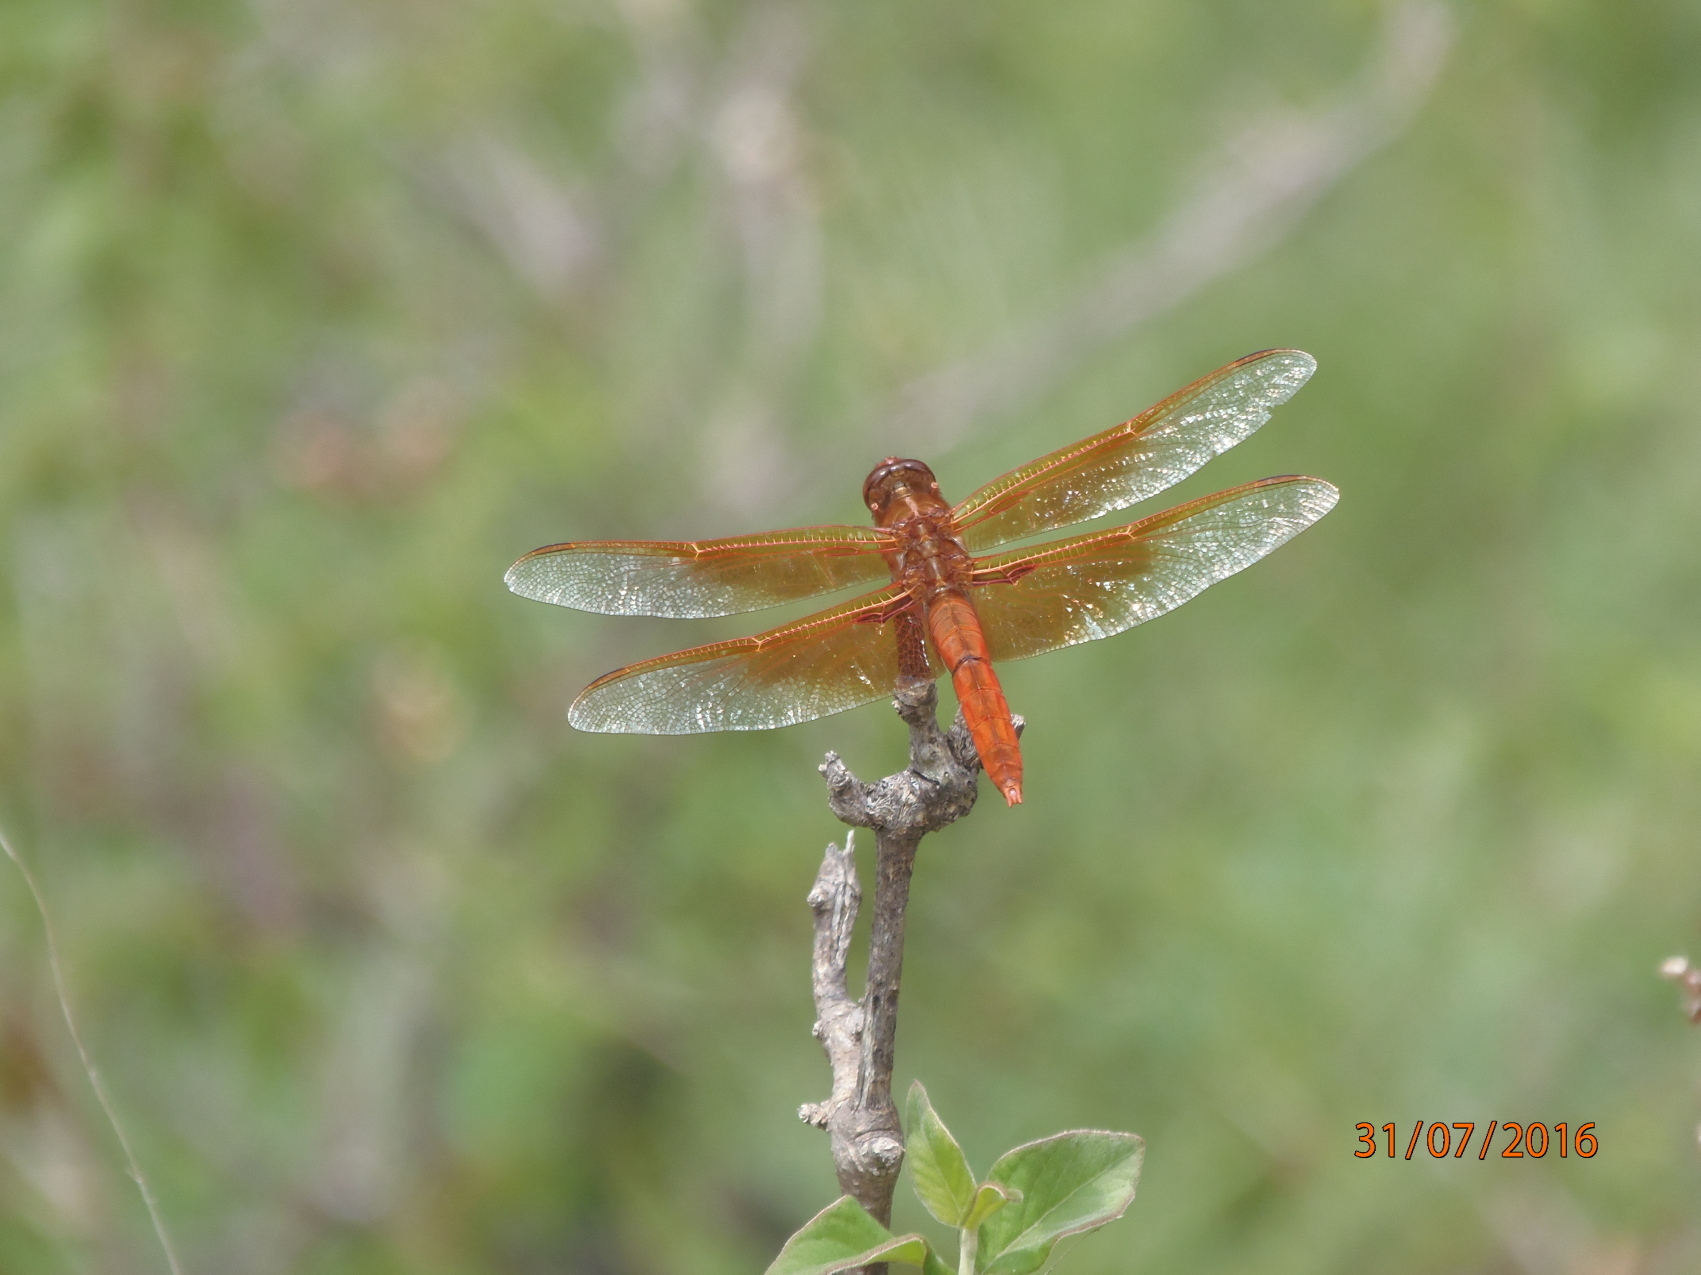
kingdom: Animalia
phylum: Arthropoda
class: Insecta
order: Odonata
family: Libellulidae
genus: Libellula
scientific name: Libellula saturata
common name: Flame skimmer
